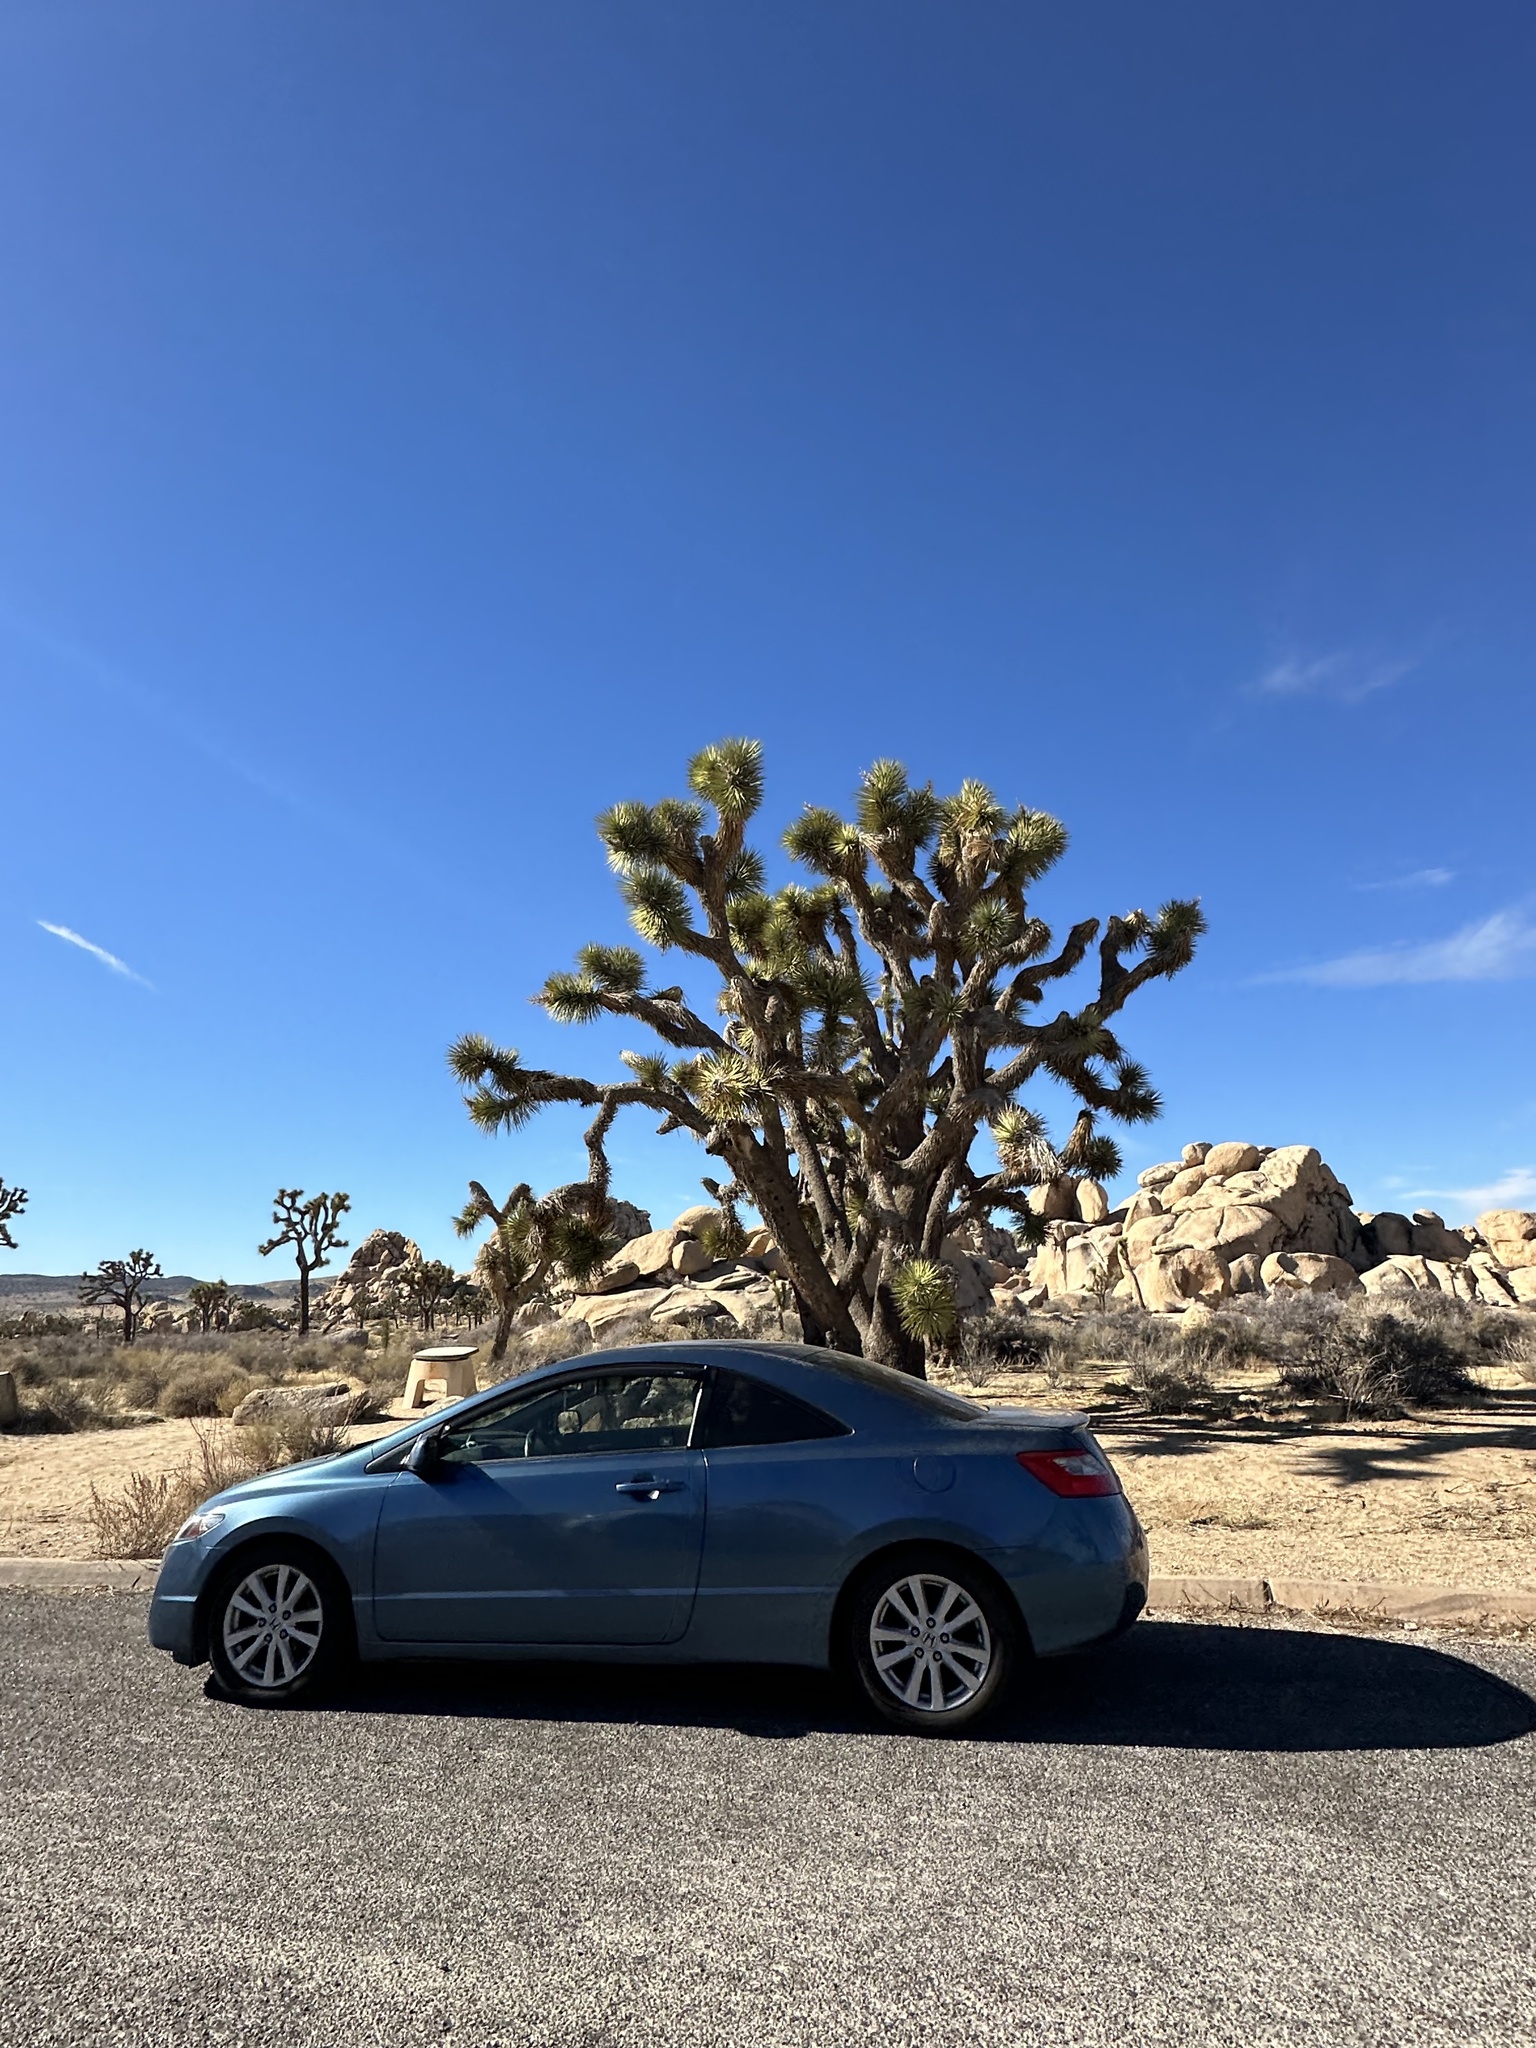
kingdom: Plantae
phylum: Tracheophyta
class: Liliopsida
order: Asparagales
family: Asparagaceae
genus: Yucca
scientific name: Yucca brevifolia
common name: Joshua tree
